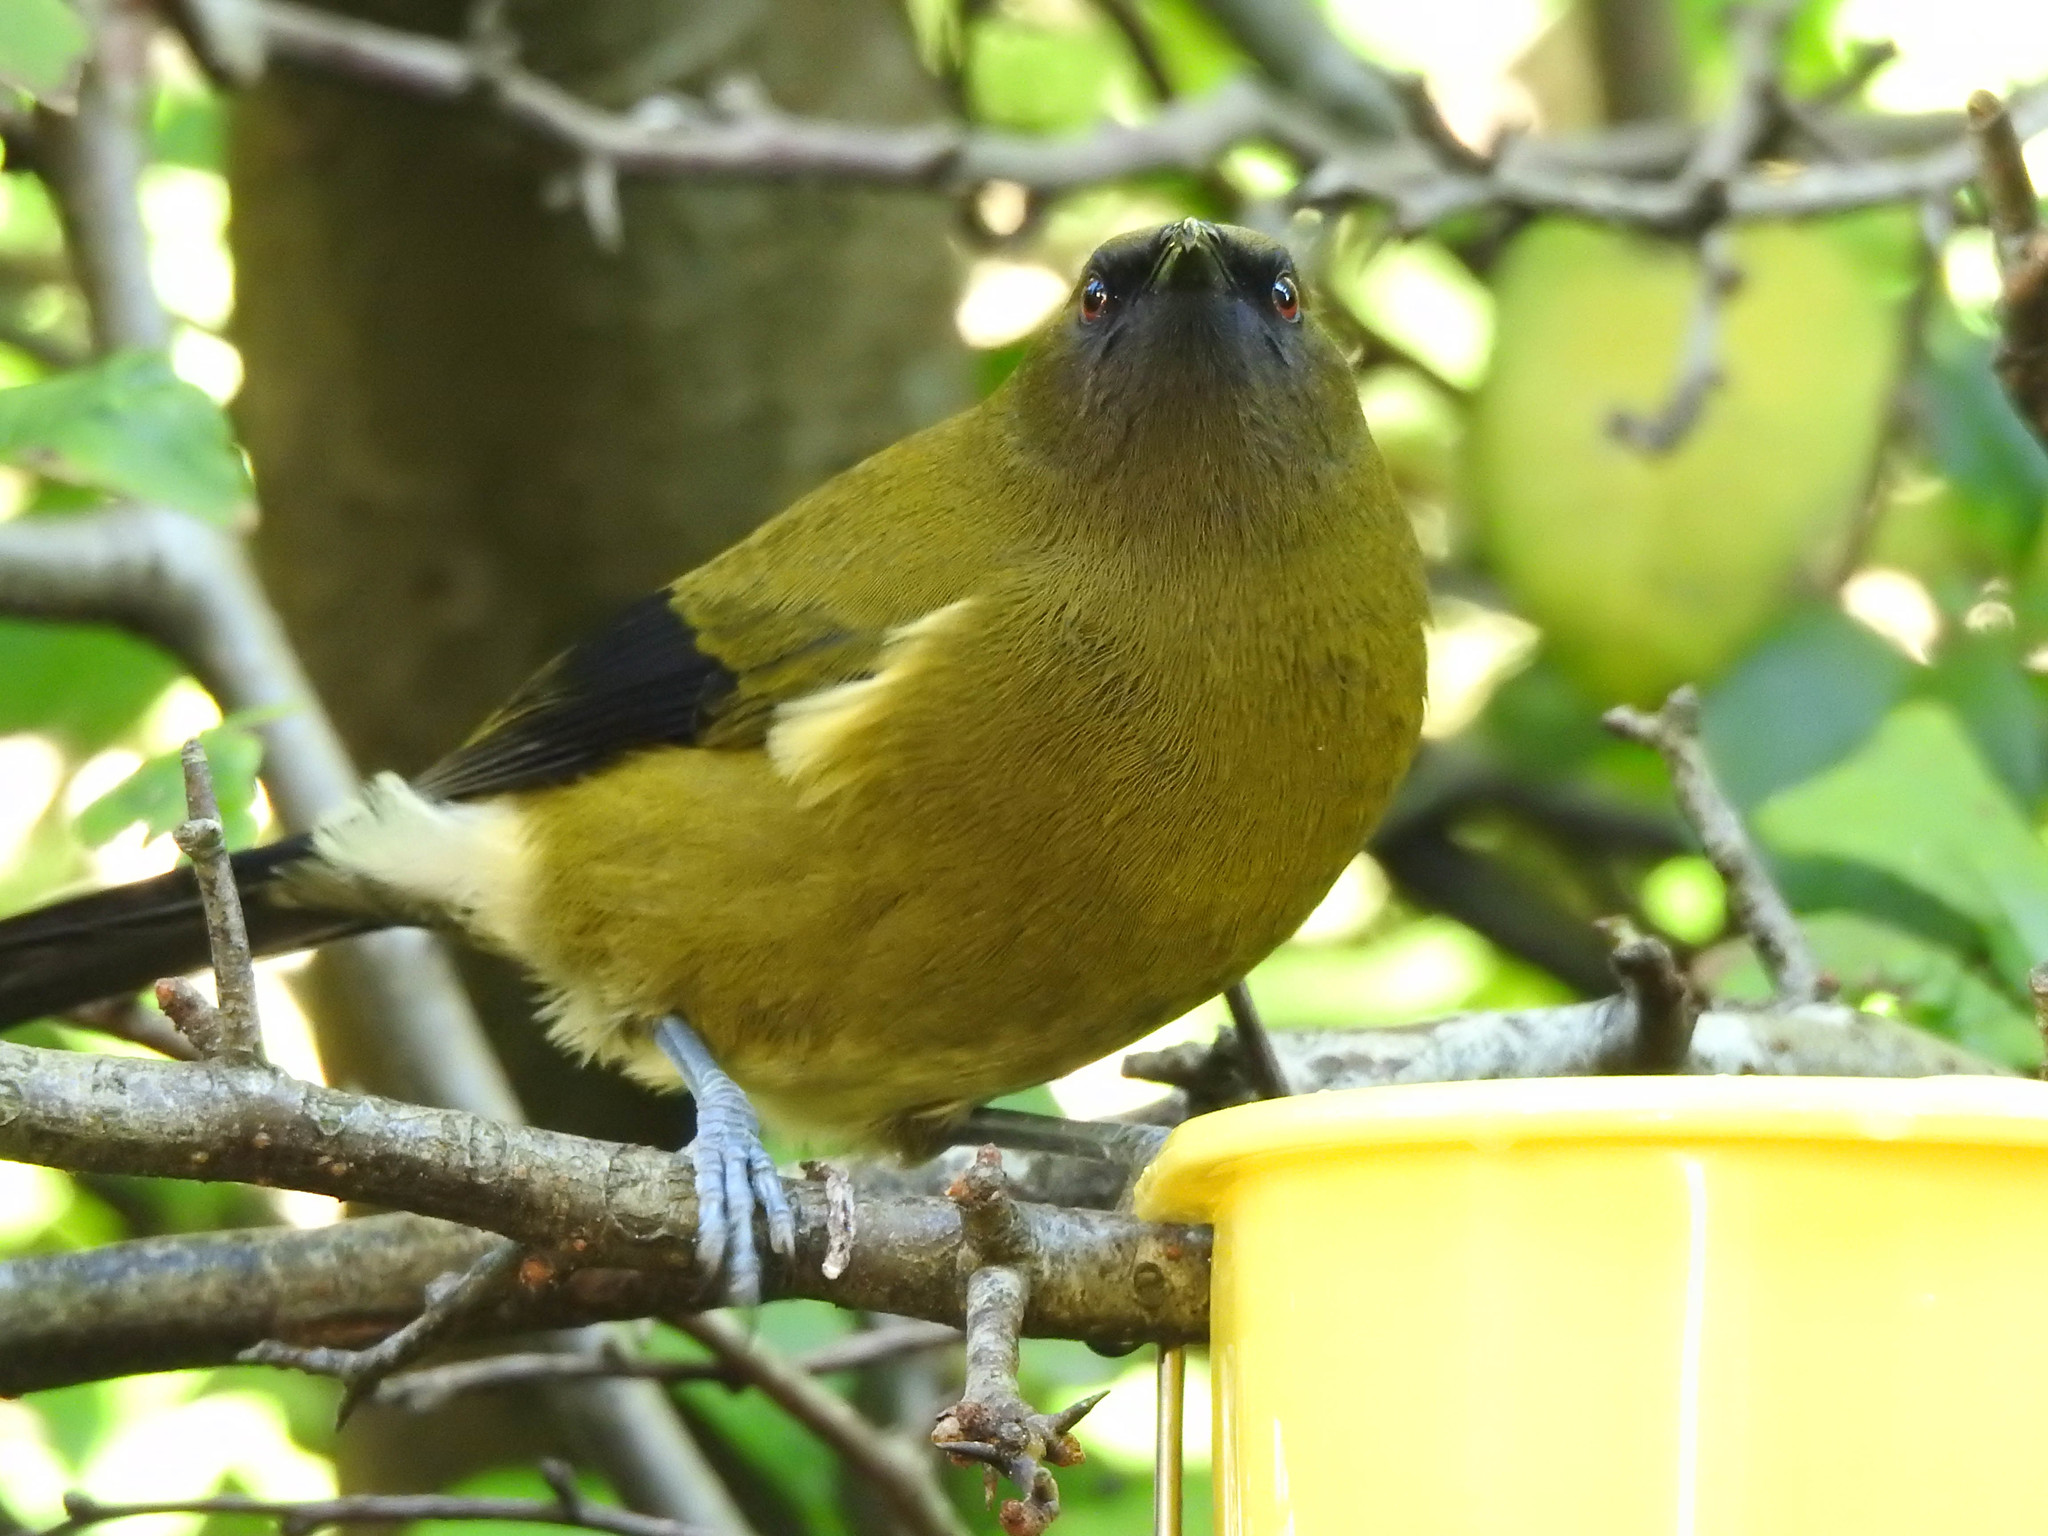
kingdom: Animalia
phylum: Chordata
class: Aves
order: Passeriformes
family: Meliphagidae
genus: Anthornis
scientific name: Anthornis melanura
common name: New zealand bellbird
